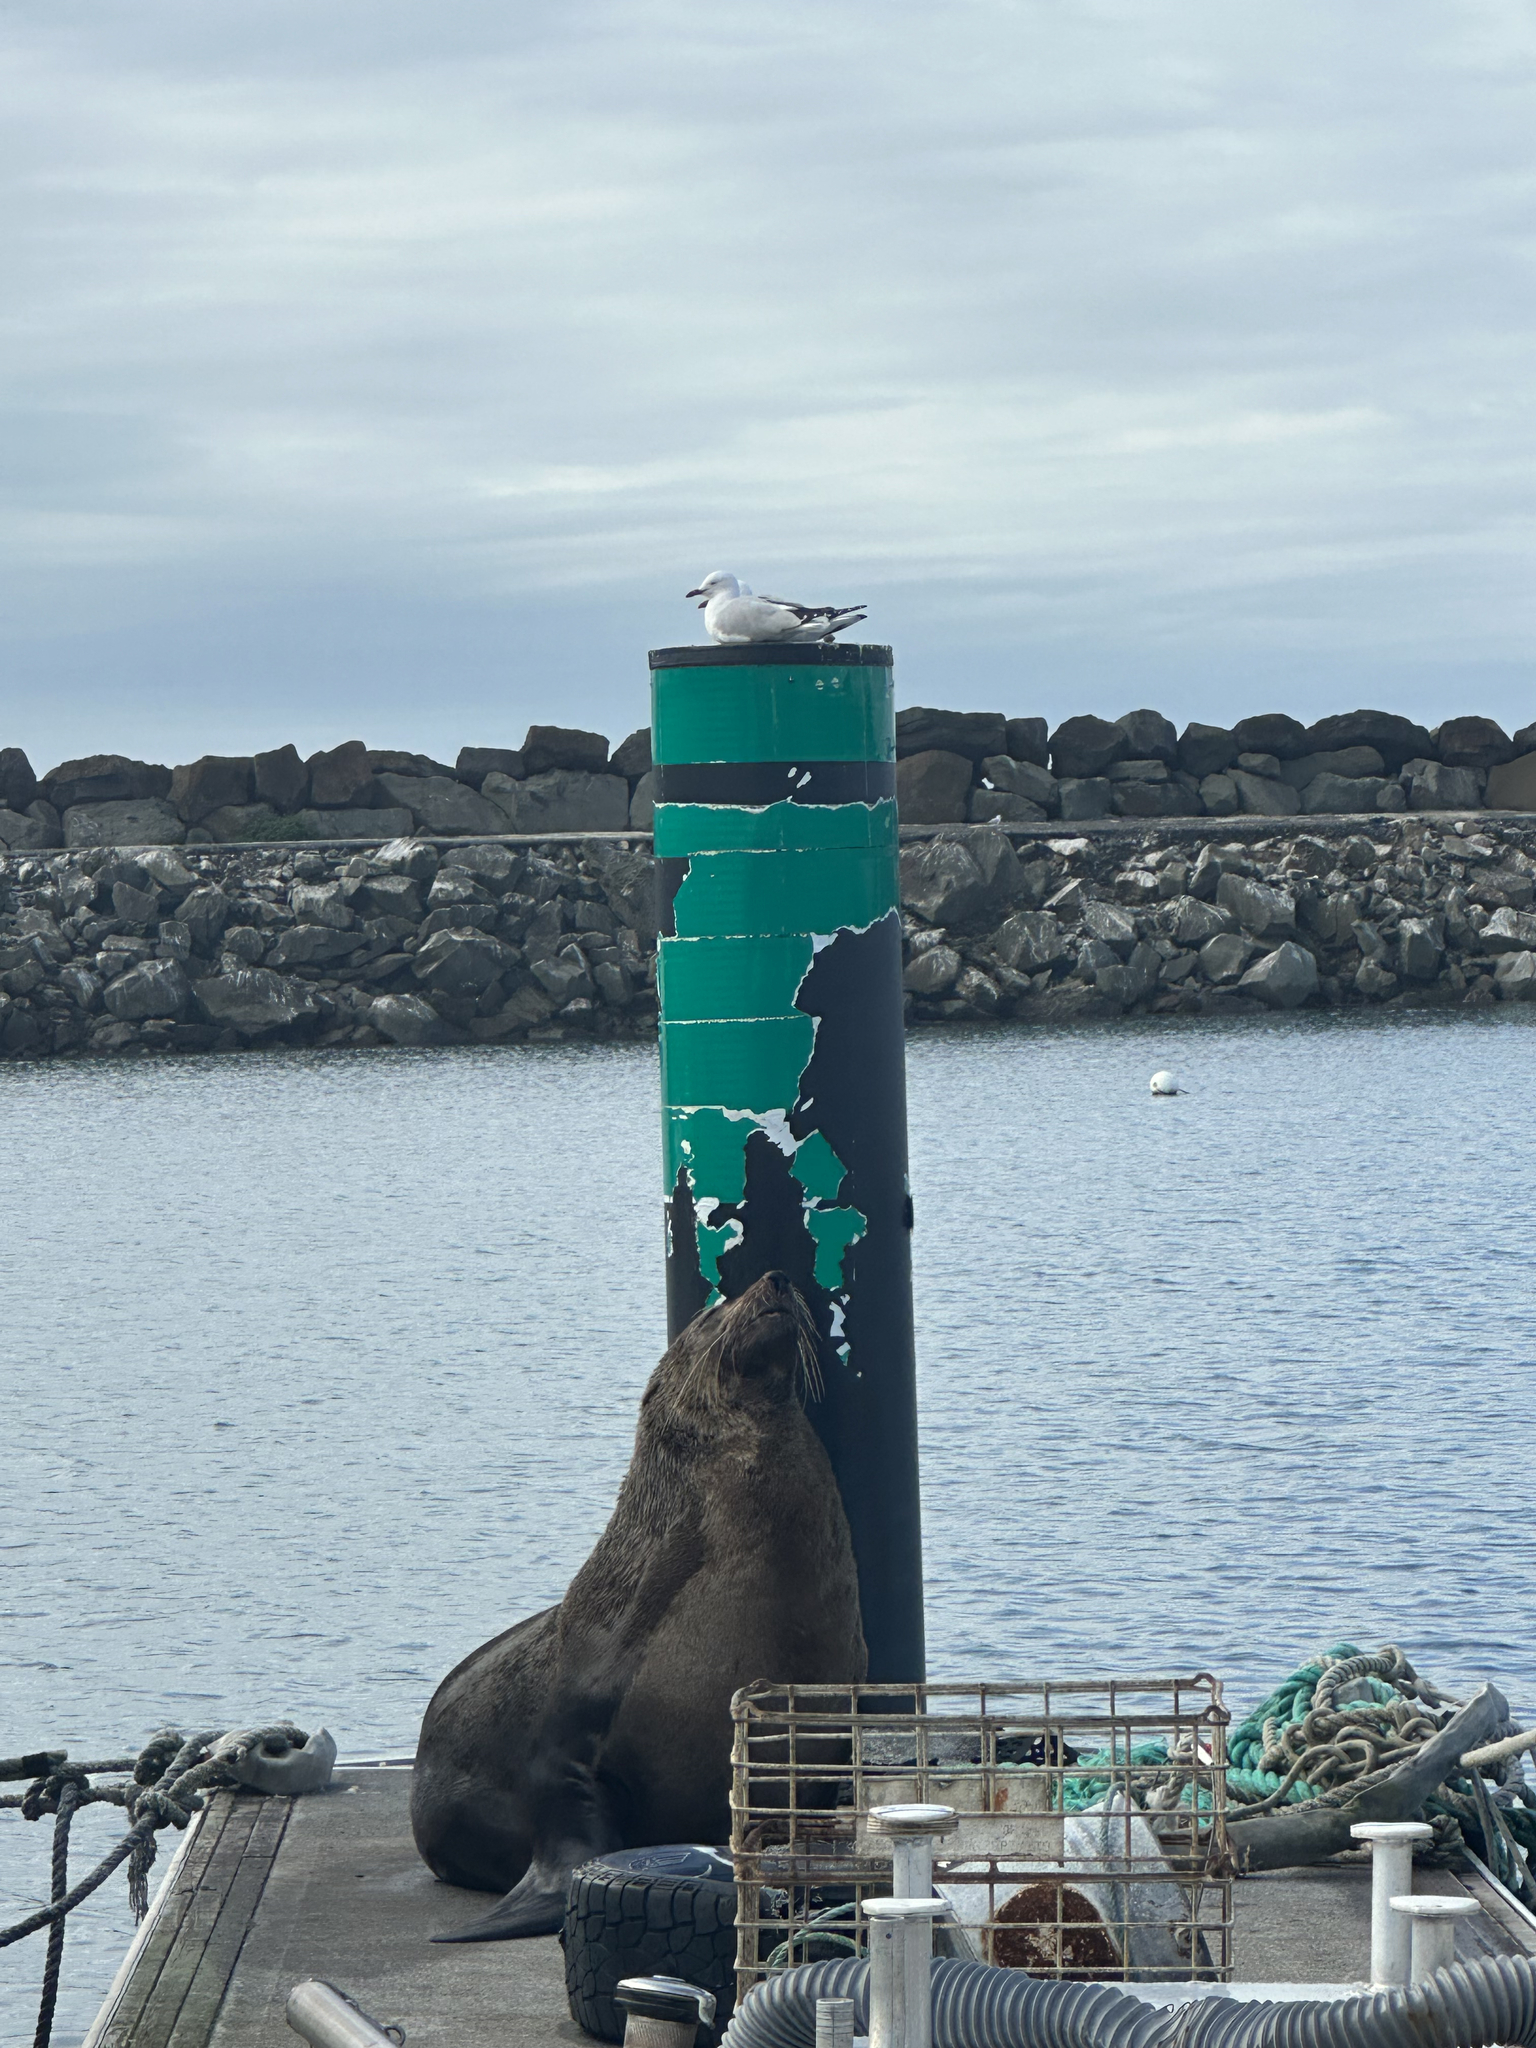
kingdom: Animalia
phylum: Chordata
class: Mammalia
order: Carnivora
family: Otariidae
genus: Arctocephalus
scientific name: Arctocephalus pusillus
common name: Brown fur seal
